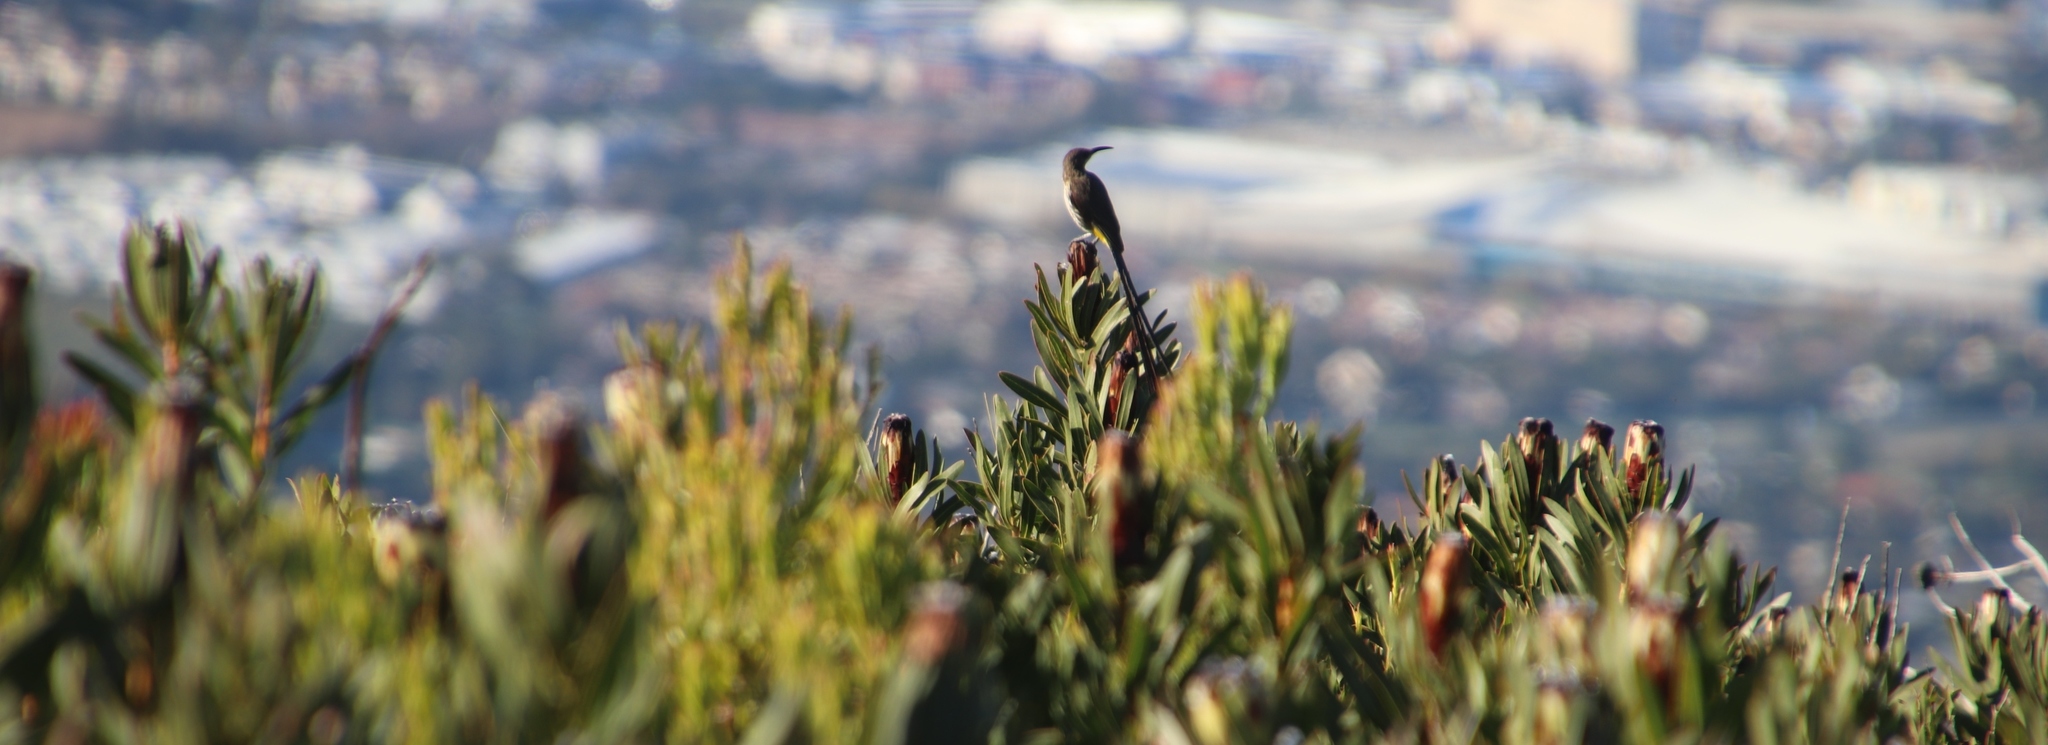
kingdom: Animalia
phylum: Chordata
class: Aves
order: Passeriformes
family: Promeropidae
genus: Promerops
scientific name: Promerops cafer
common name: Cape sugarbird
